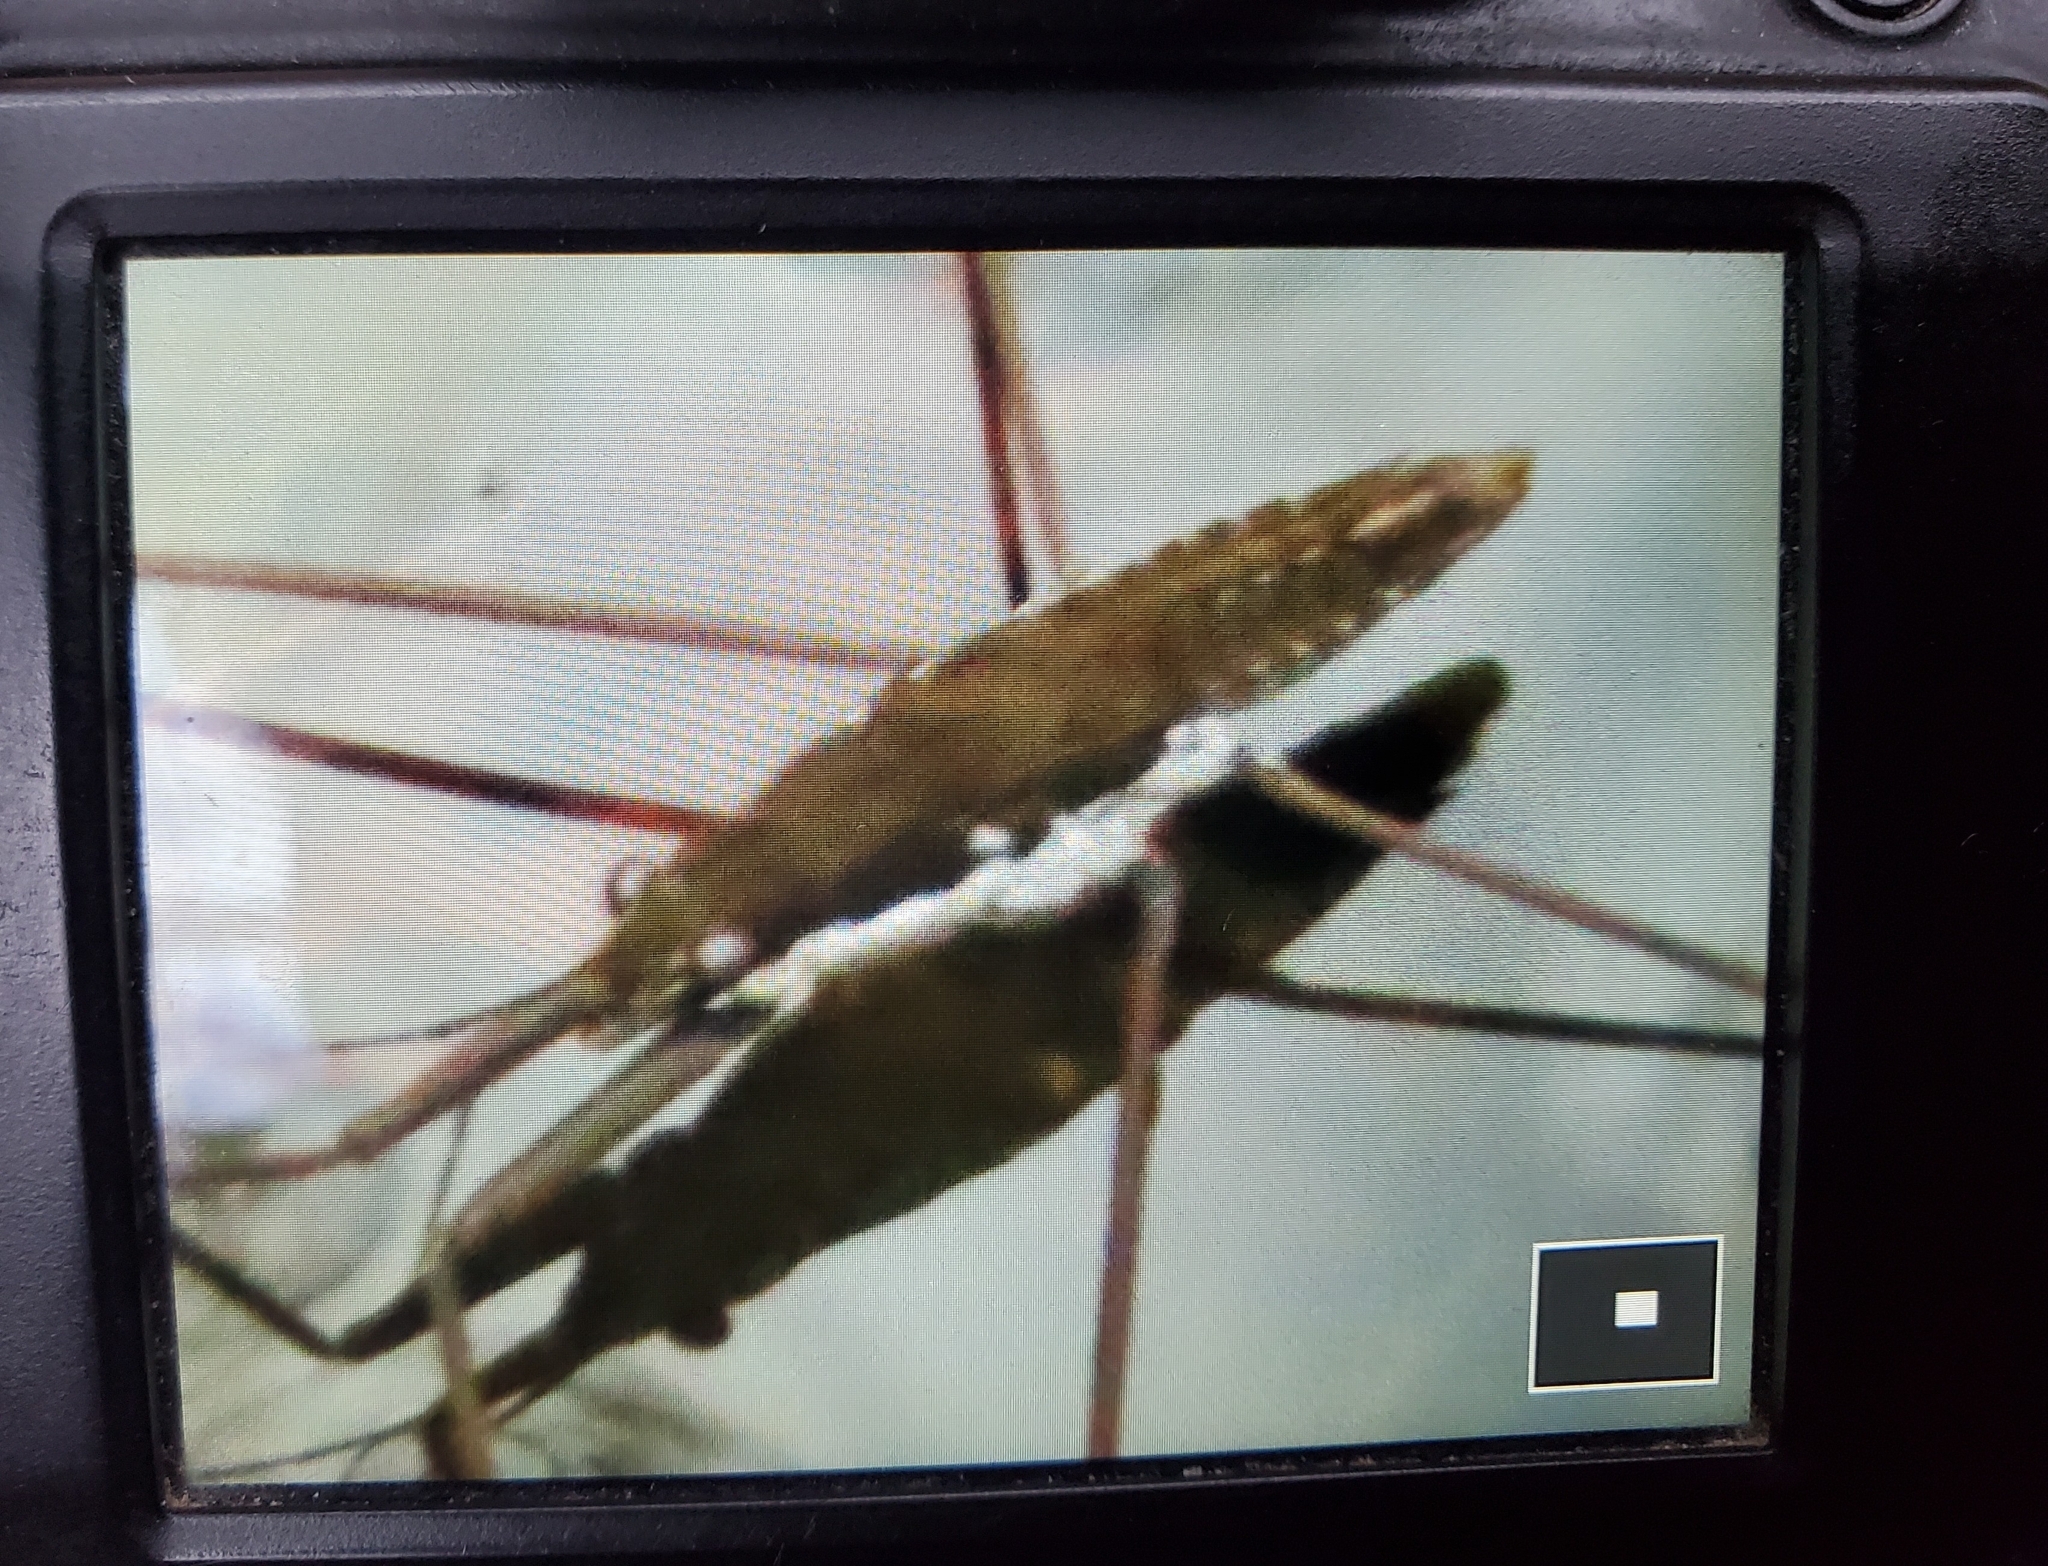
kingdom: Animalia
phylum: Arthropoda
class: Insecta
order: Hemiptera
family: Gerridae
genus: Aquarius
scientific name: Aquarius remigis
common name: Common water strider
